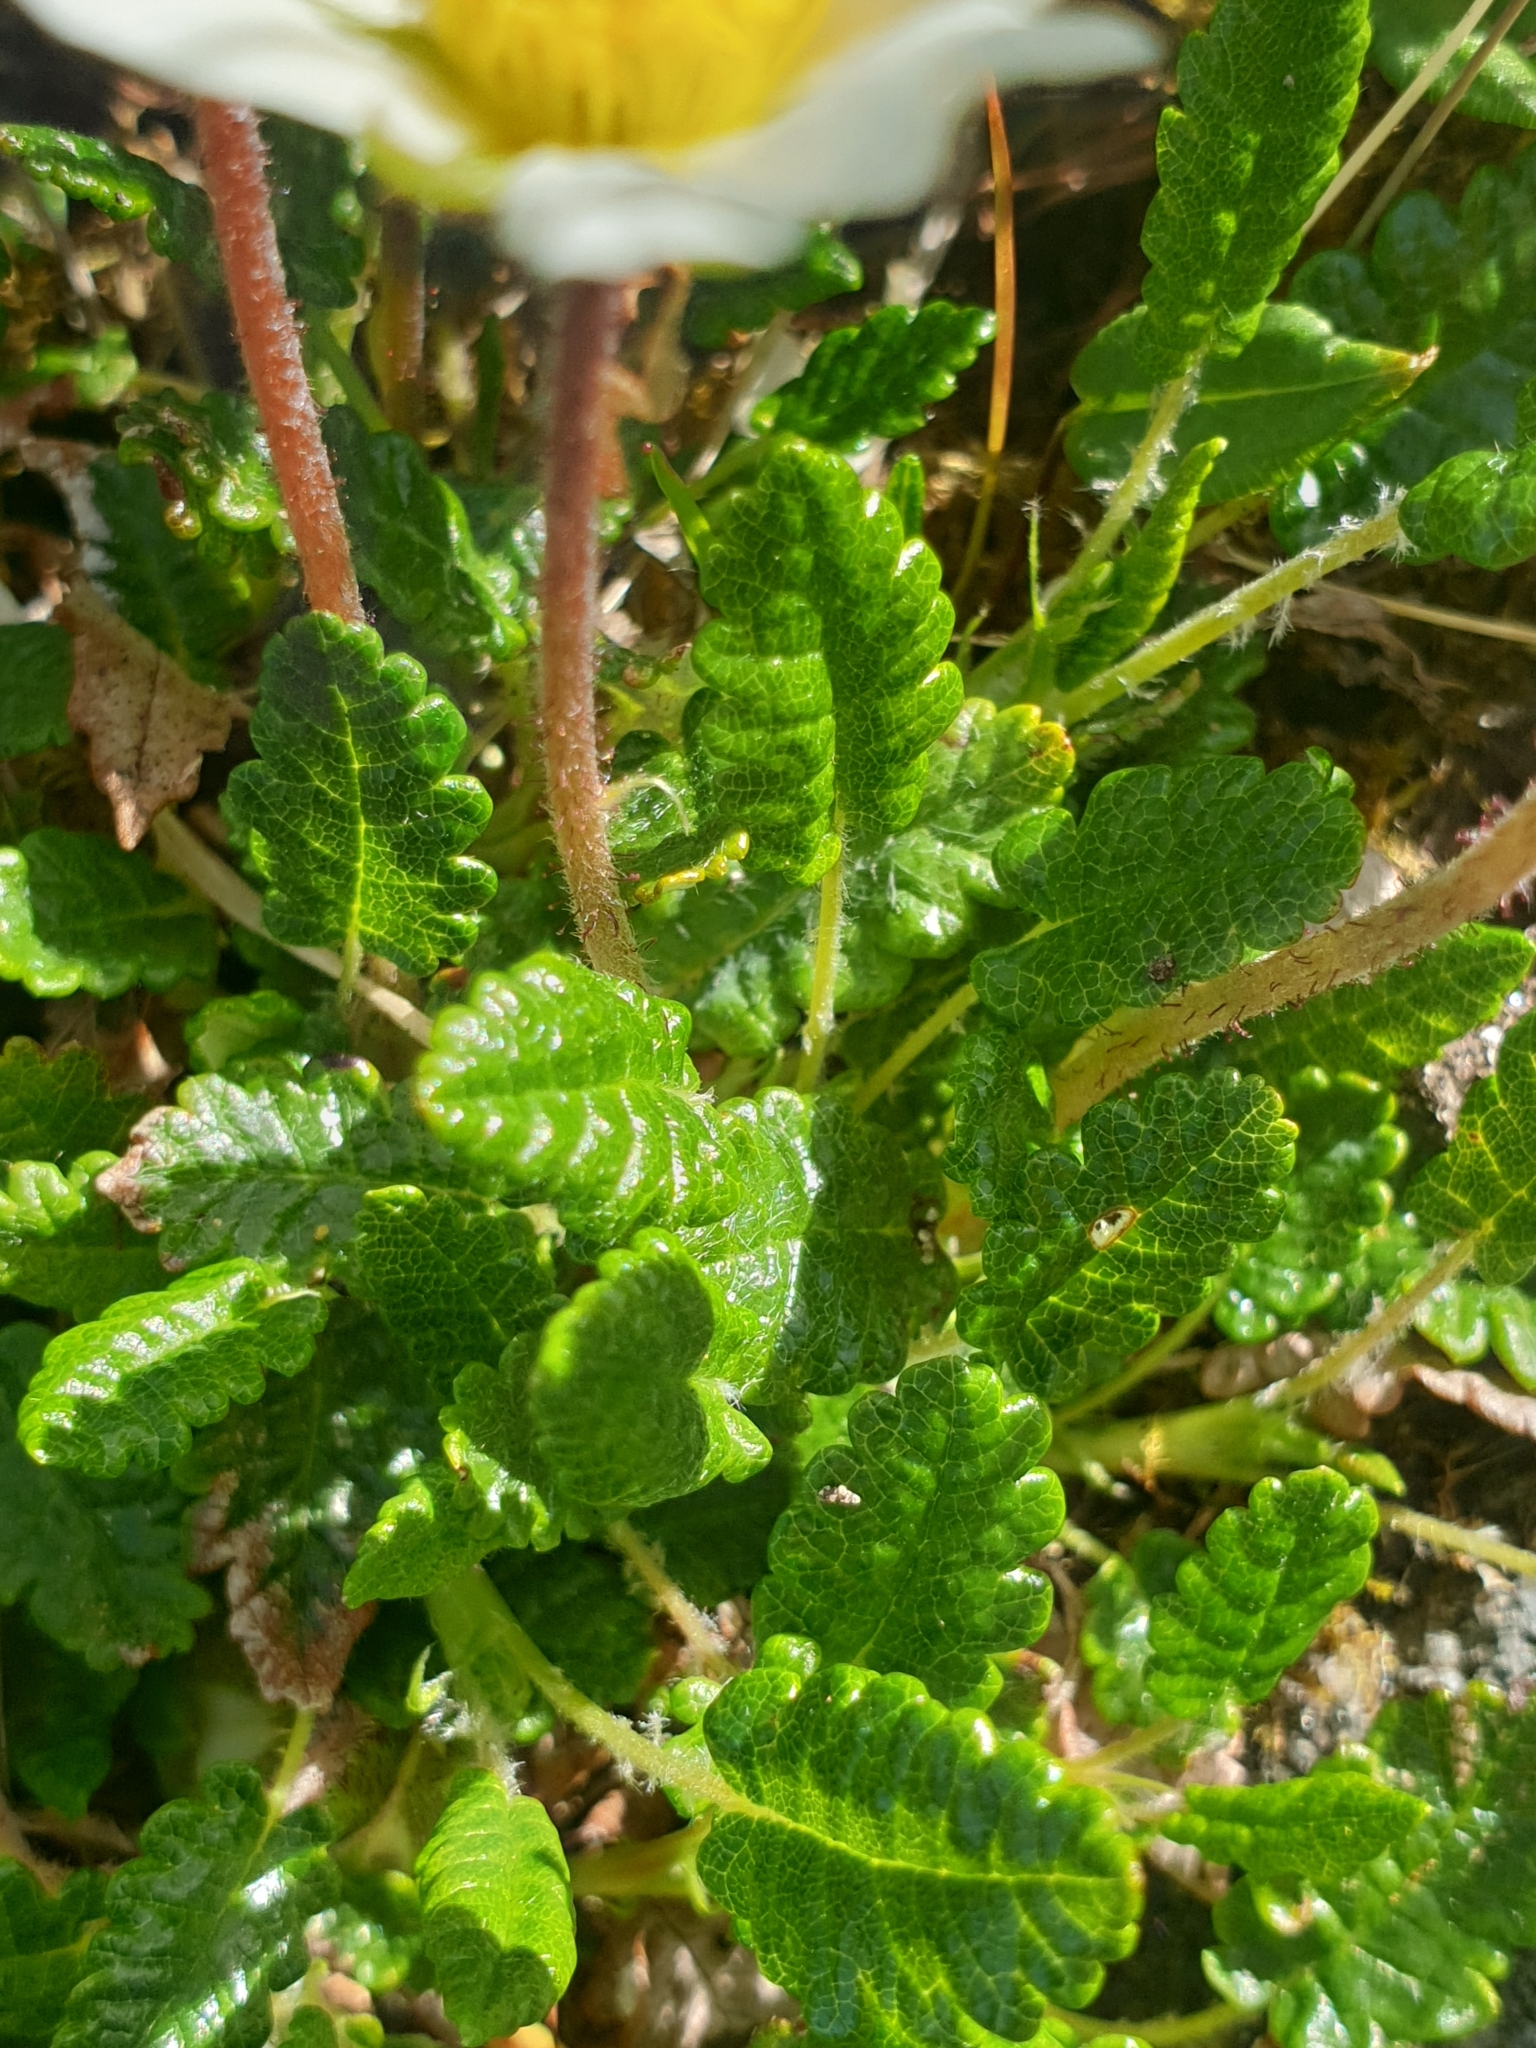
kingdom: Plantae
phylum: Tracheophyta
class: Magnoliopsida
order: Rosales
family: Rosaceae
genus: Dryas
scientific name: Dryas octopetala
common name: Eight-petal mountain-avens
